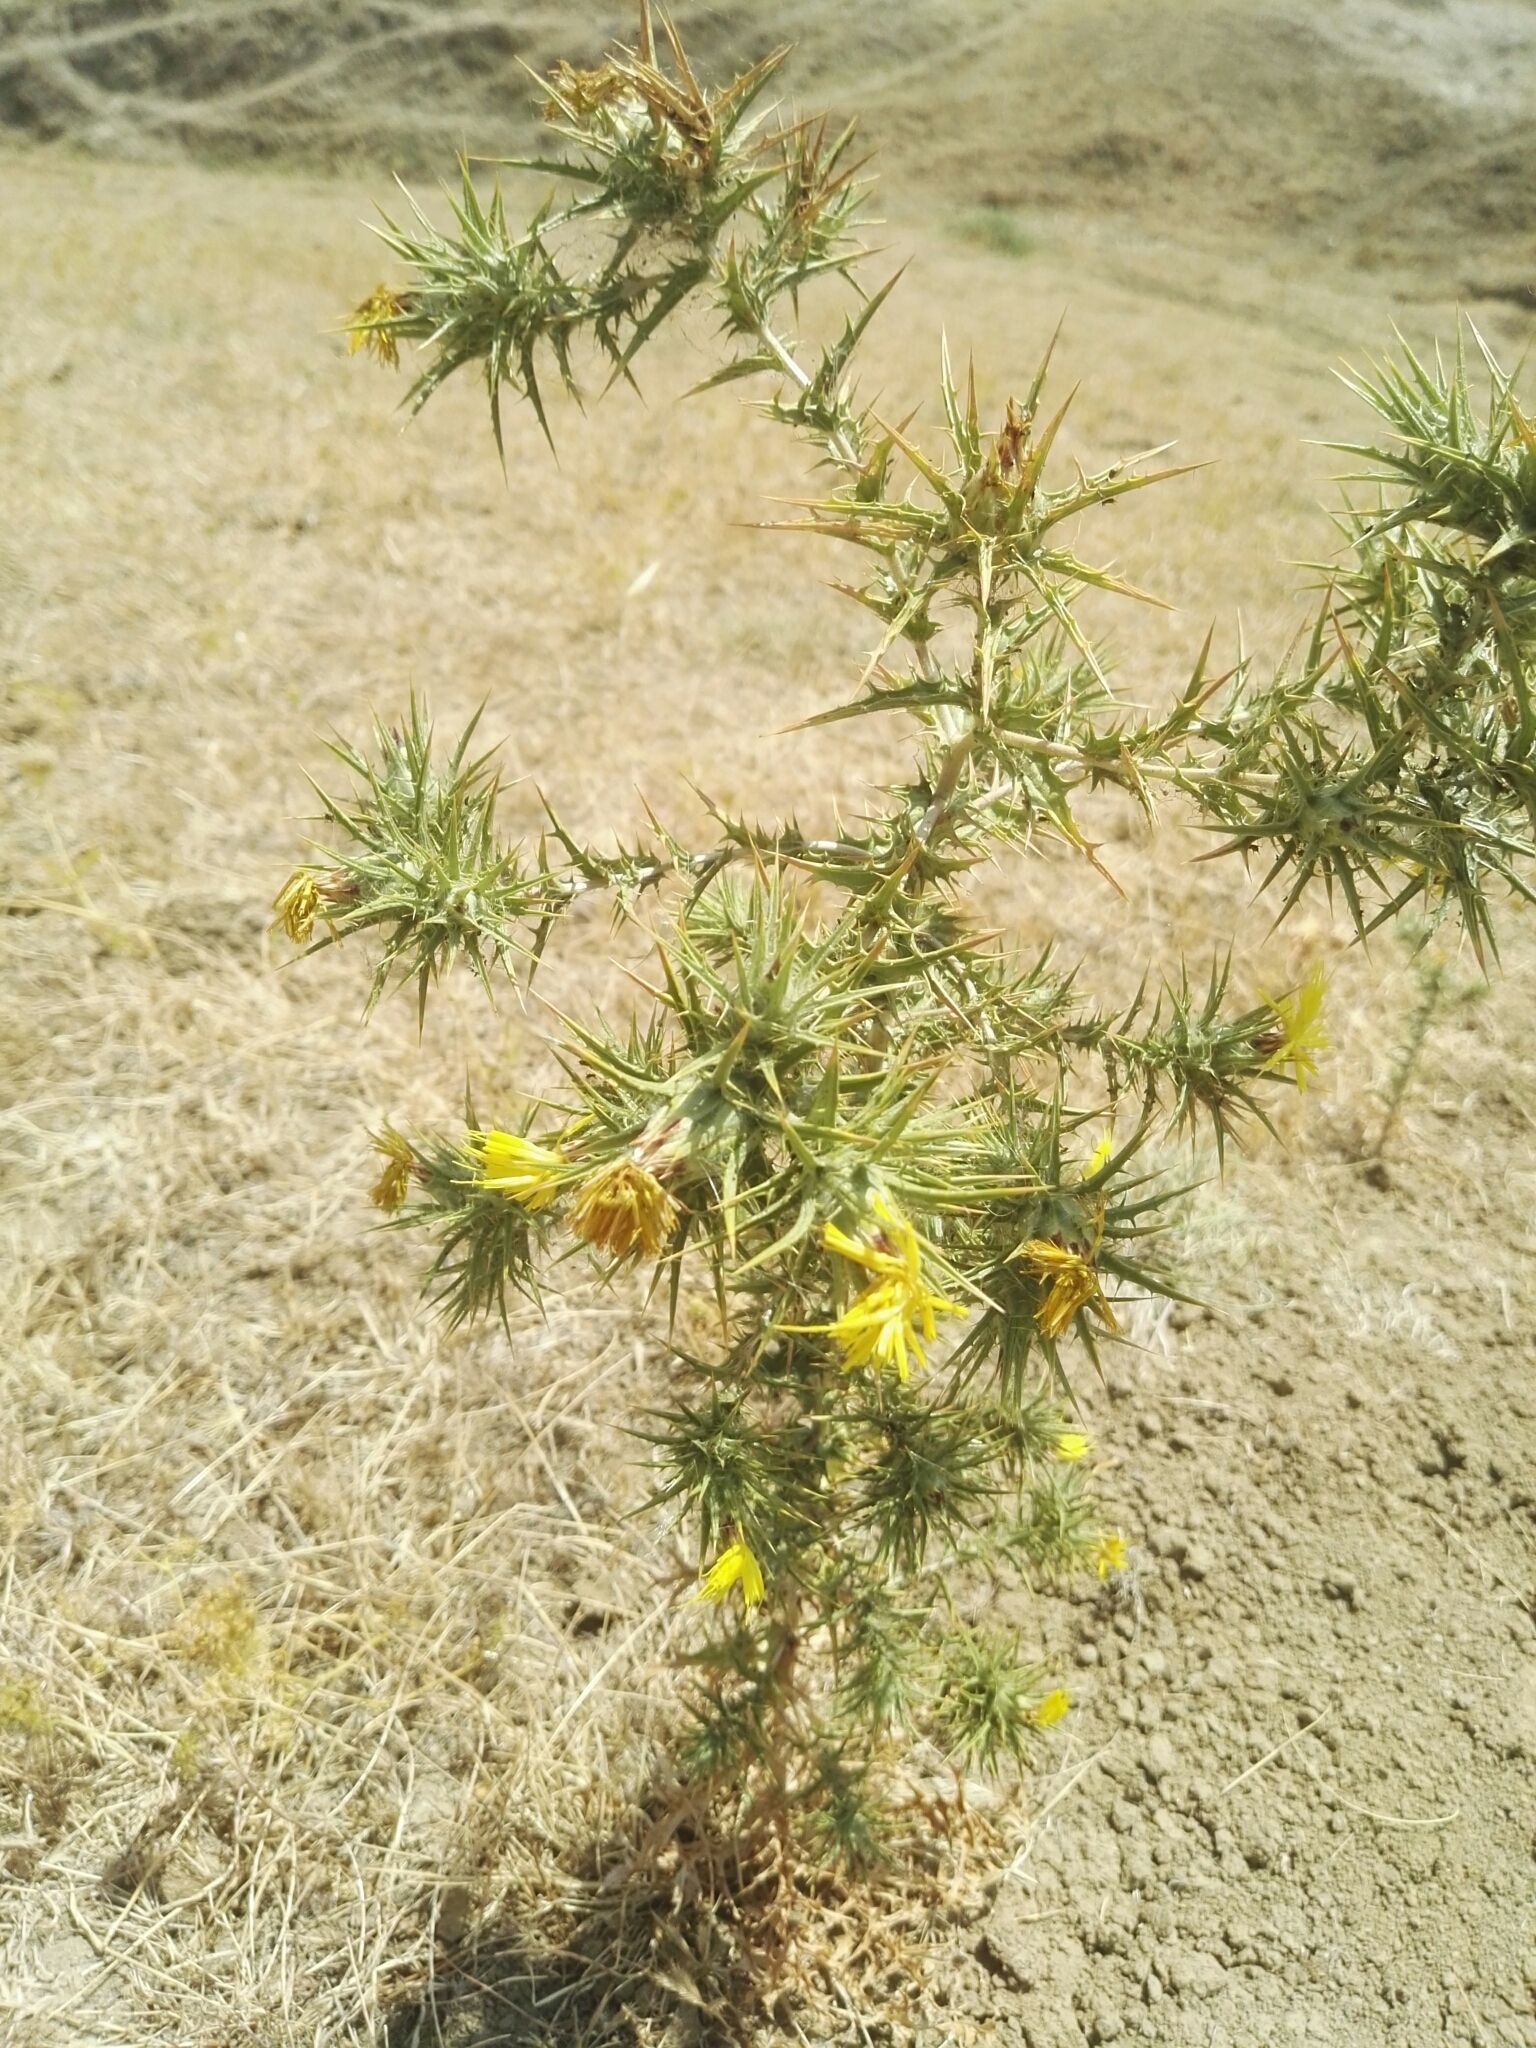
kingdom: Plantae
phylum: Tracheophyta
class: Magnoliopsida
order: Asterales
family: Asteraceae
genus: Carthamus
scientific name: Carthamus lanatus
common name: Downy safflower
